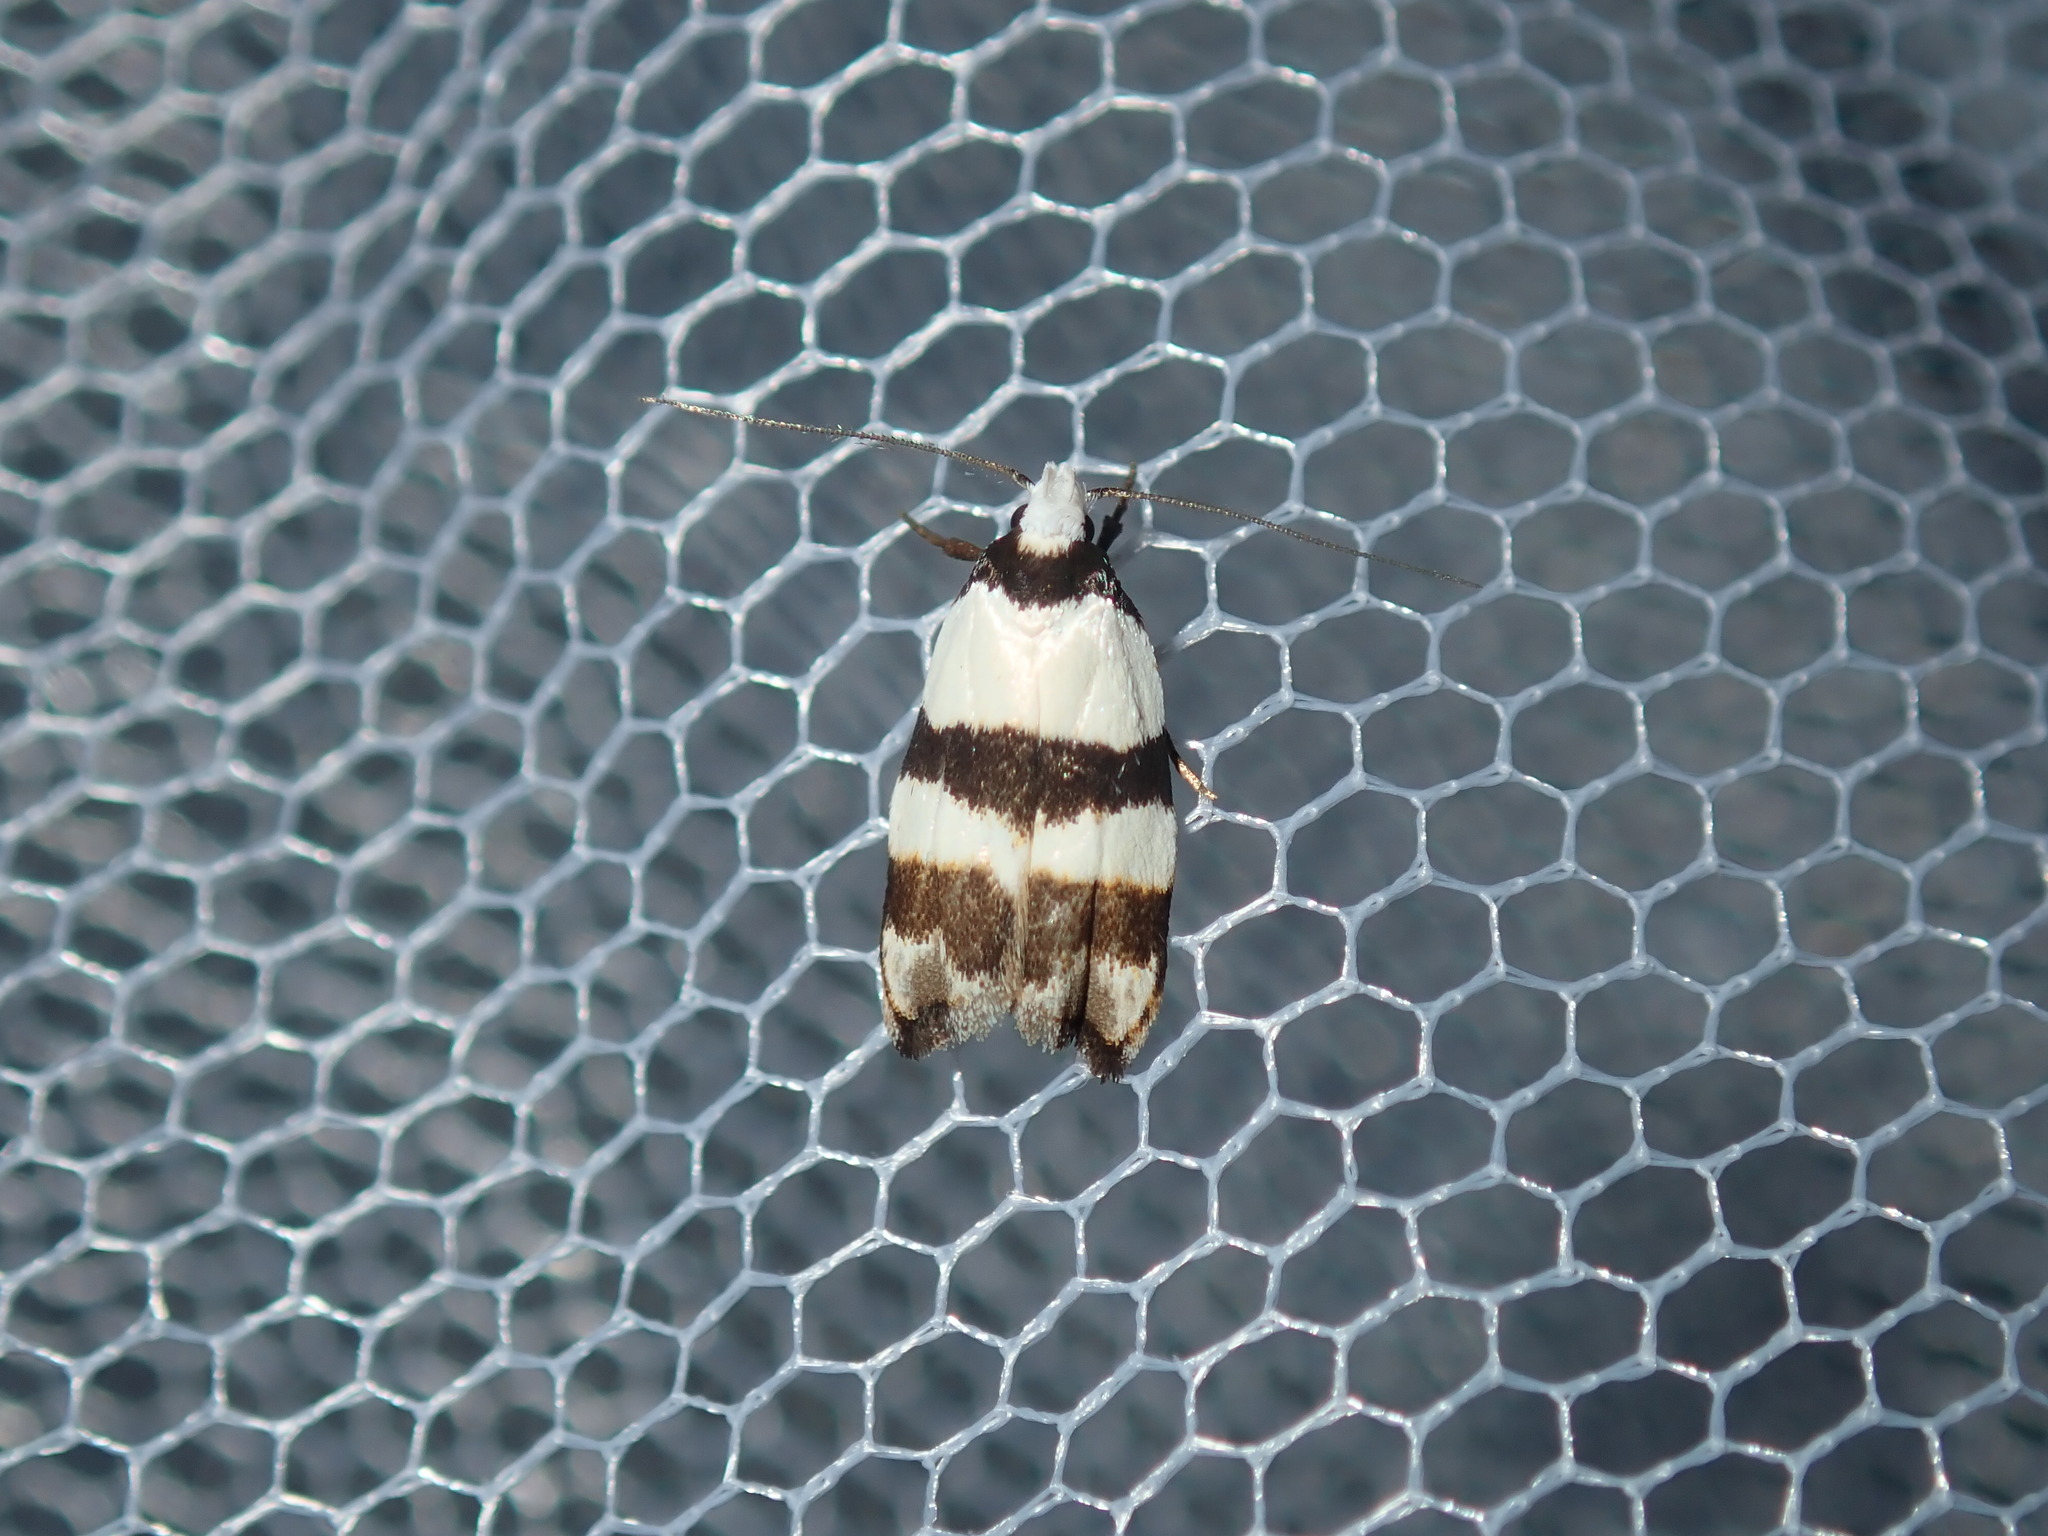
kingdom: Animalia
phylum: Arthropoda
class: Insecta
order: Lepidoptera
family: Oecophoridae
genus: Zonopetala
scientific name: Zonopetala clerota
